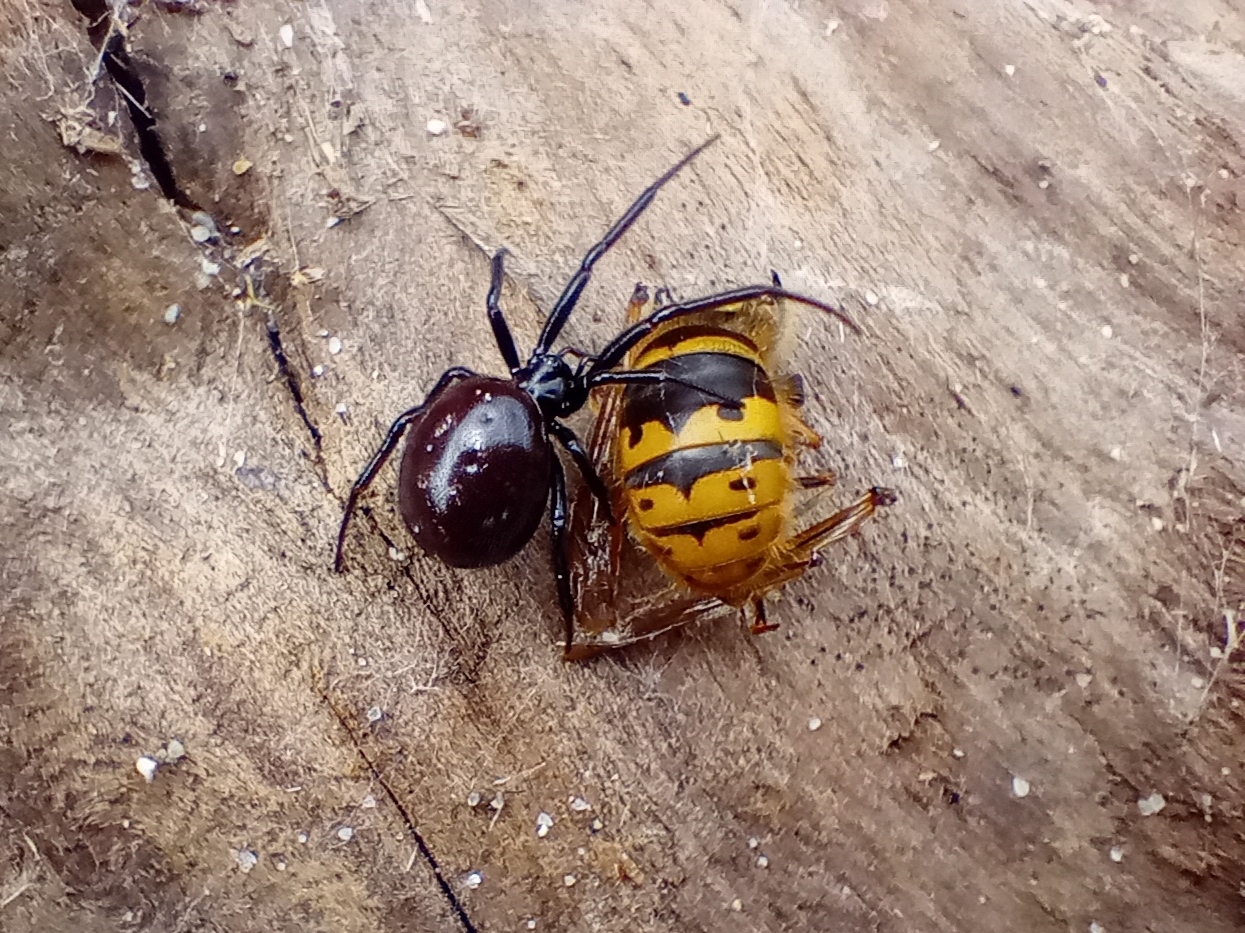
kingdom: Animalia
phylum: Arthropoda
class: Arachnida
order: Araneae
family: Theridiidae
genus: Steatoda
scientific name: Steatoda capensis
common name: Cobweb weaver
